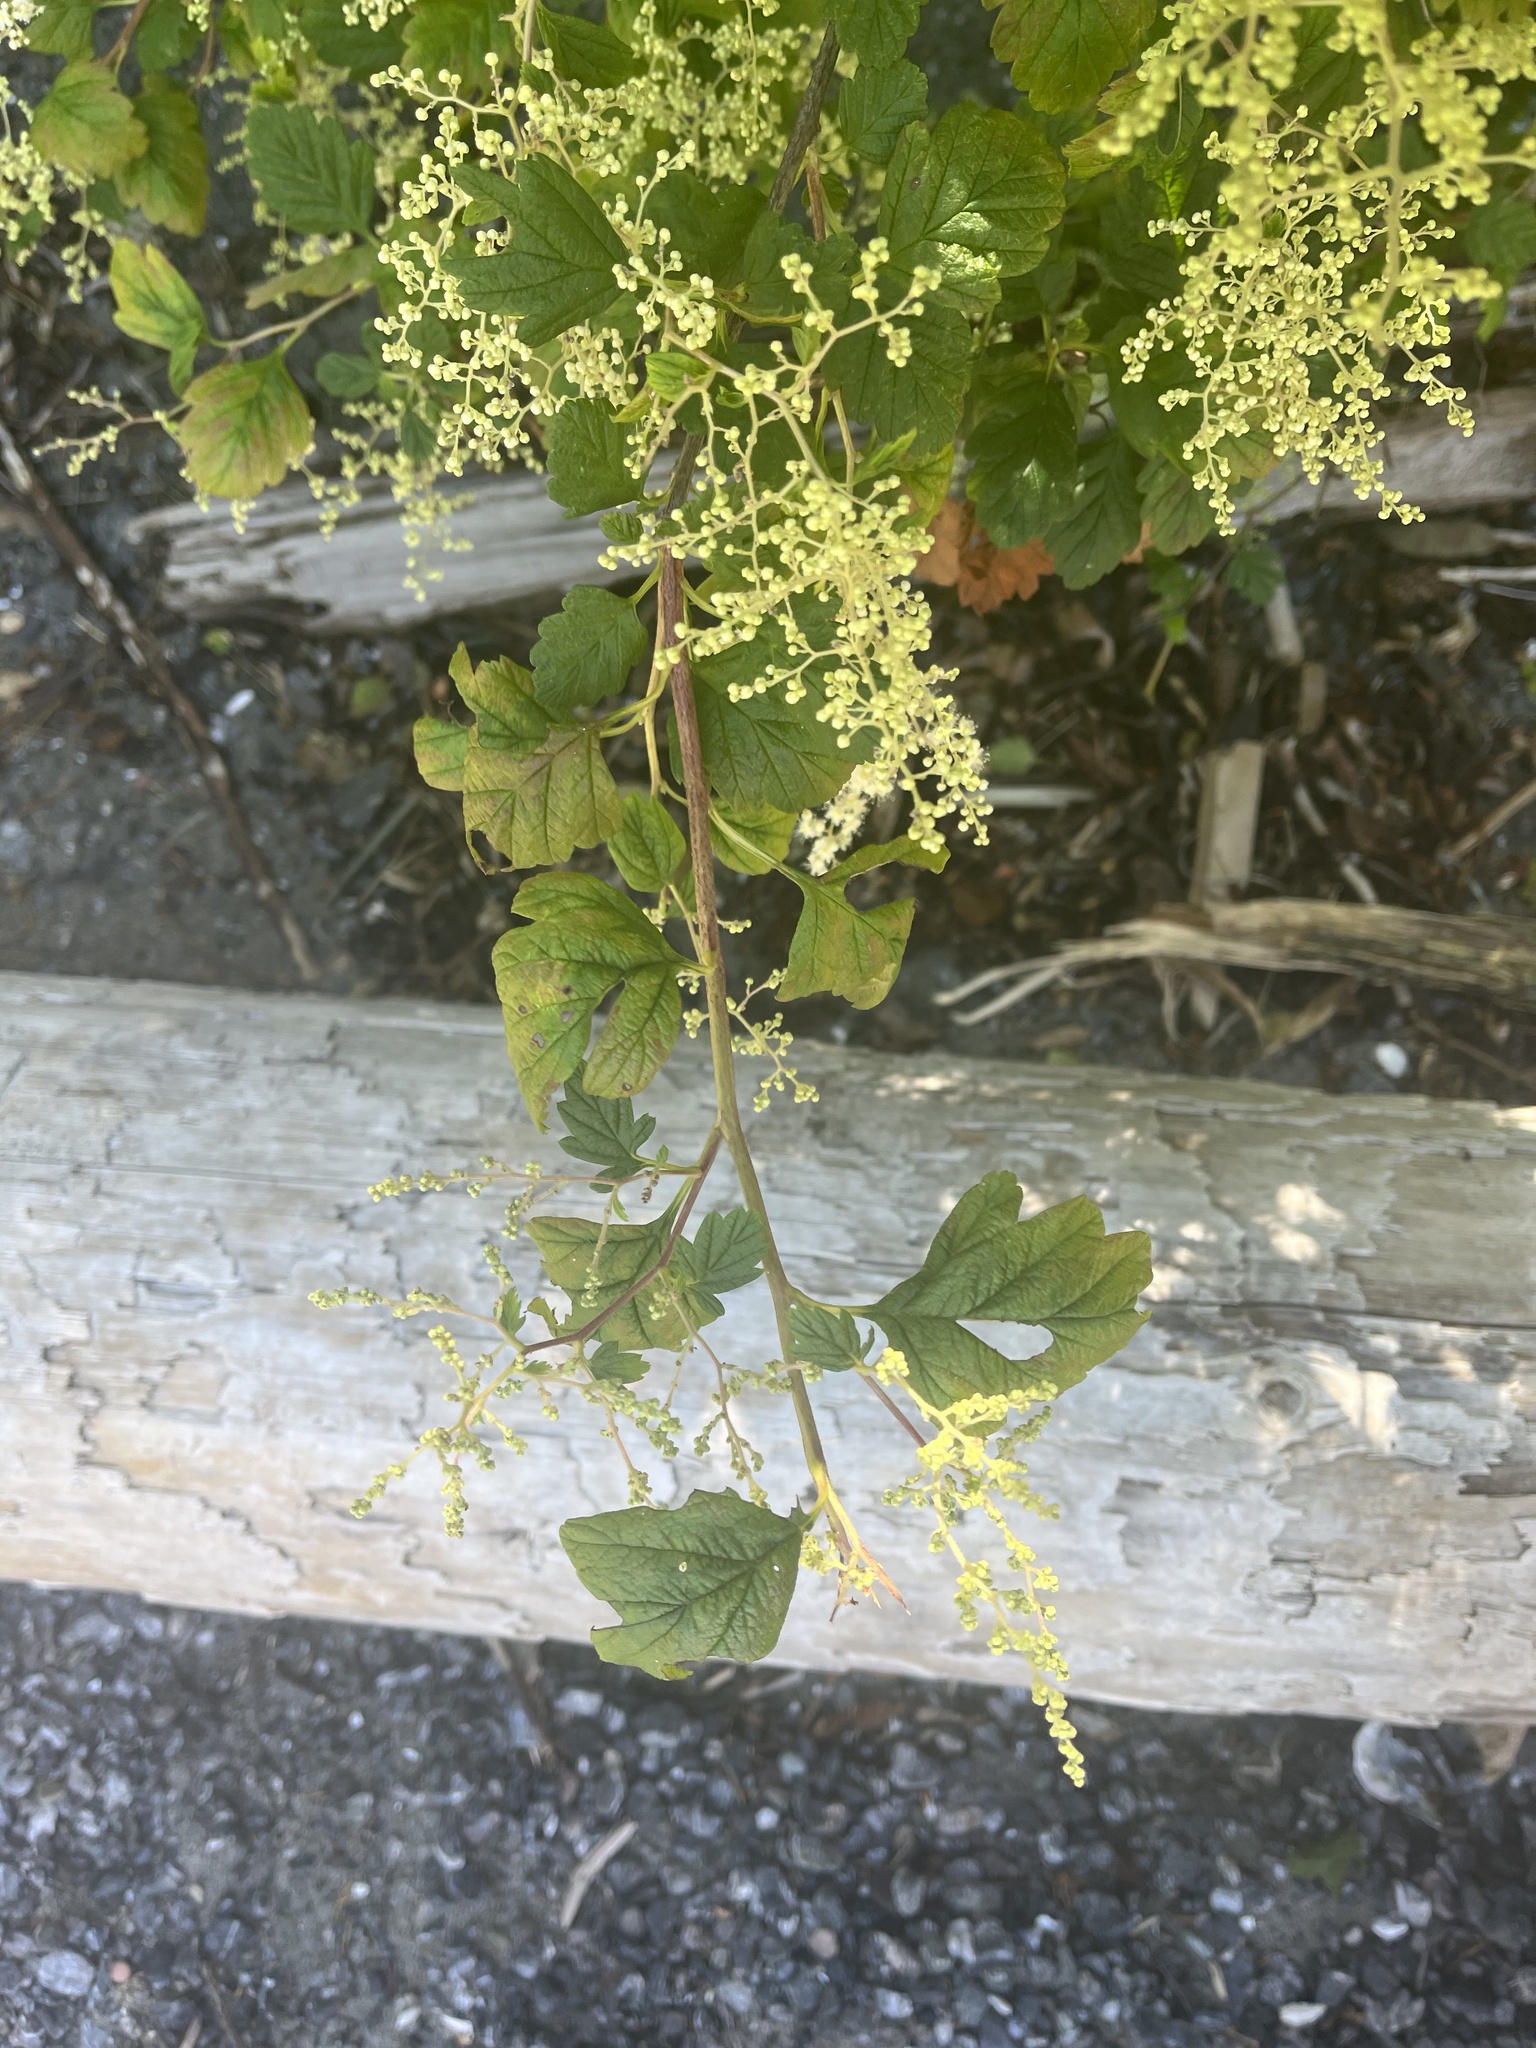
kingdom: Plantae
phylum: Tracheophyta
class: Magnoliopsida
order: Rosales
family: Rosaceae
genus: Holodiscus
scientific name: Holodiscus discolor
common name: Oceanspray
